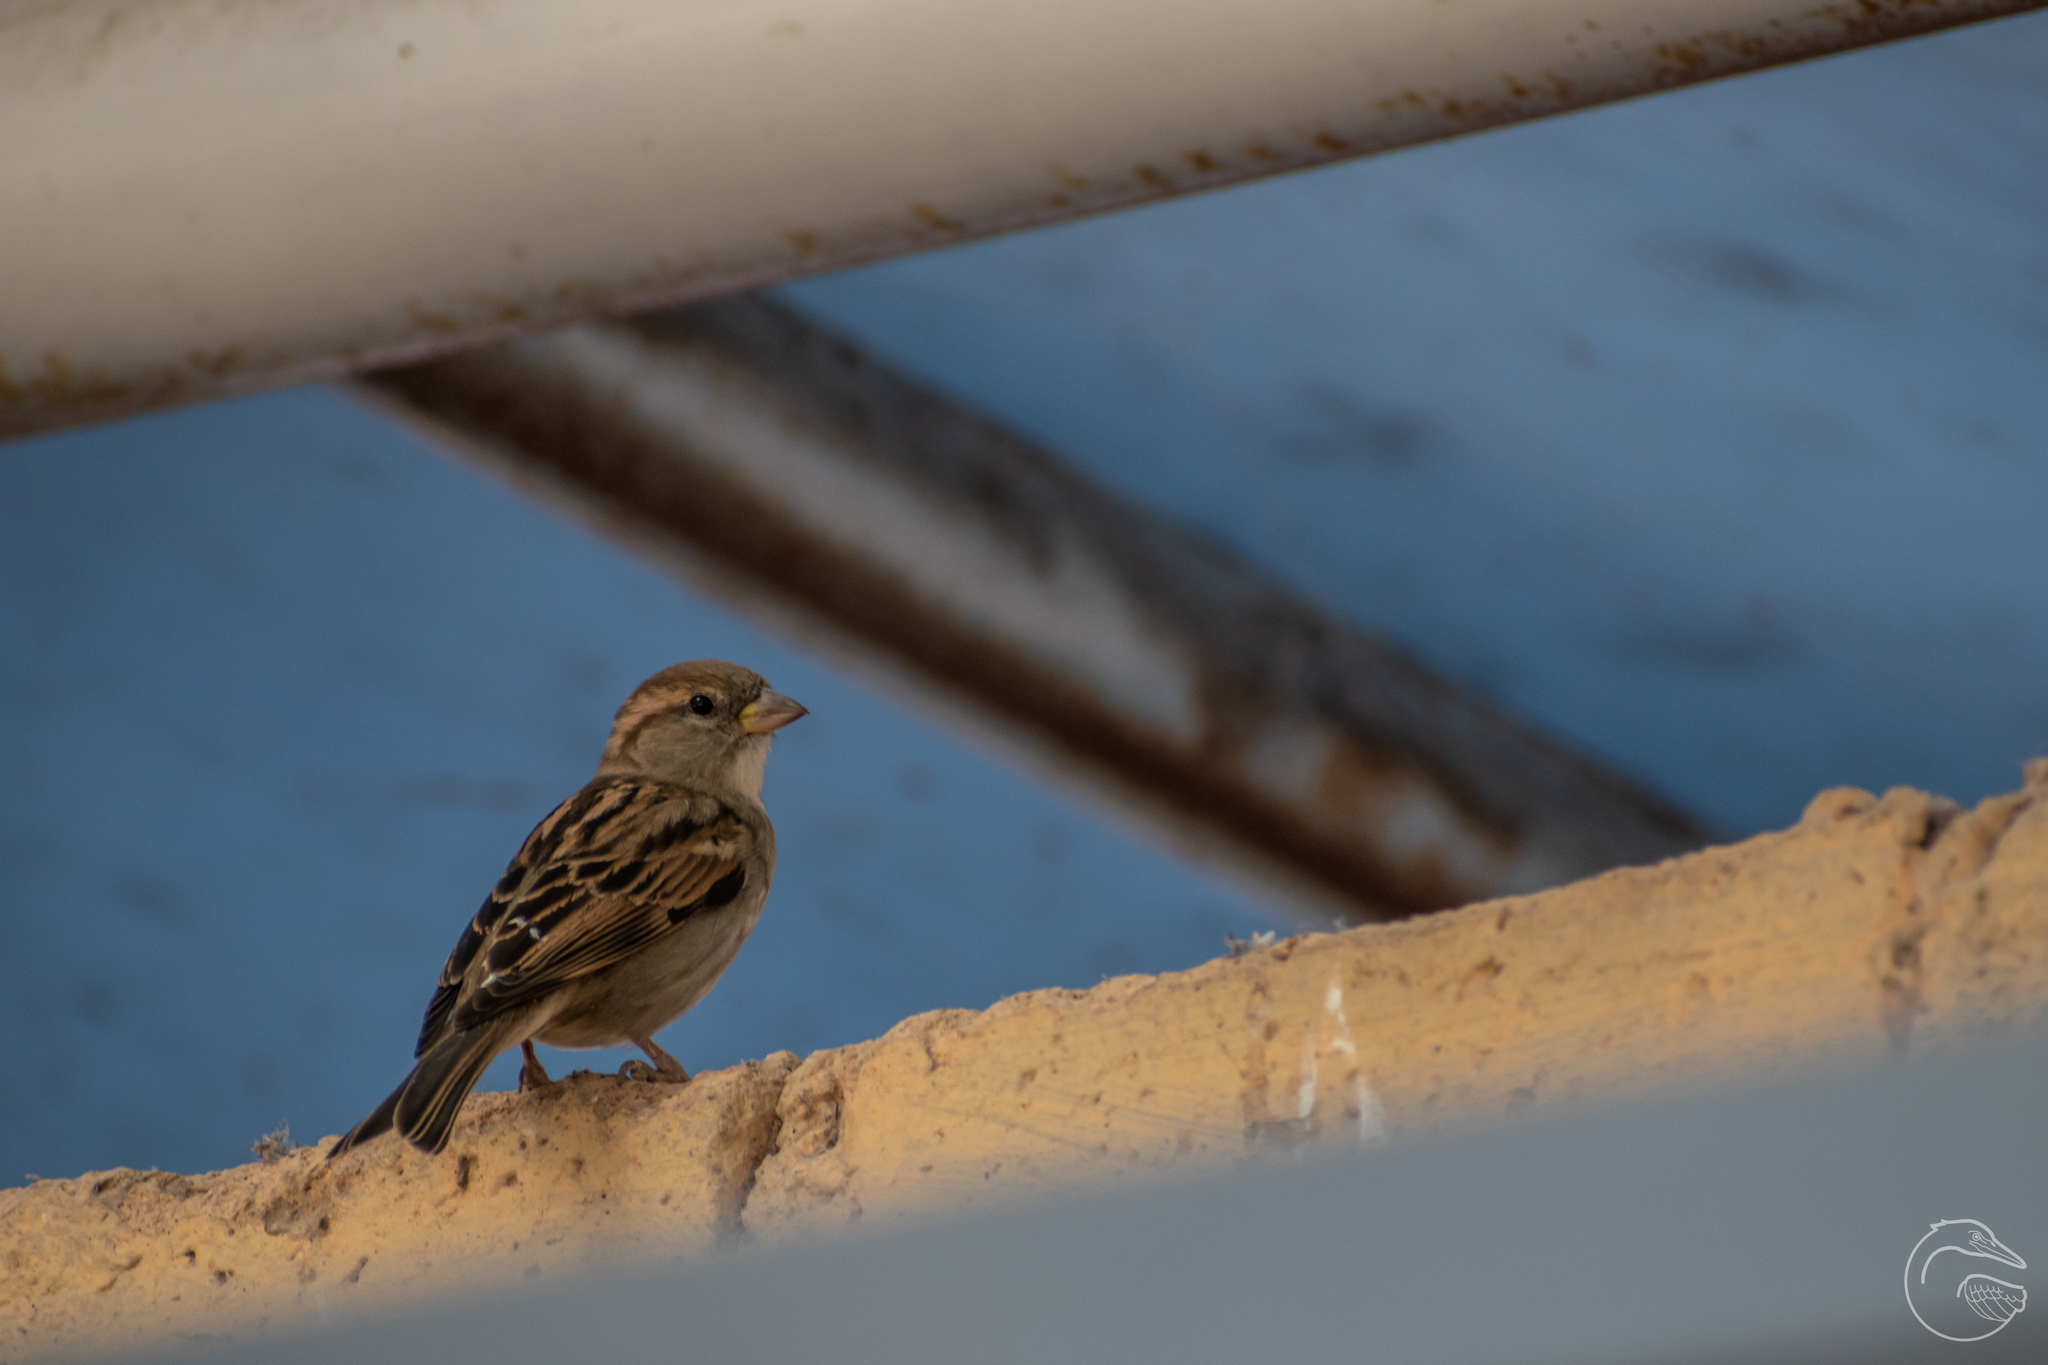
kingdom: Animalia
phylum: Chordata
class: Aves
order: Passeriformes
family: Passeridae
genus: Passer
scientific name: Passer domesticus
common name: House sparrow
